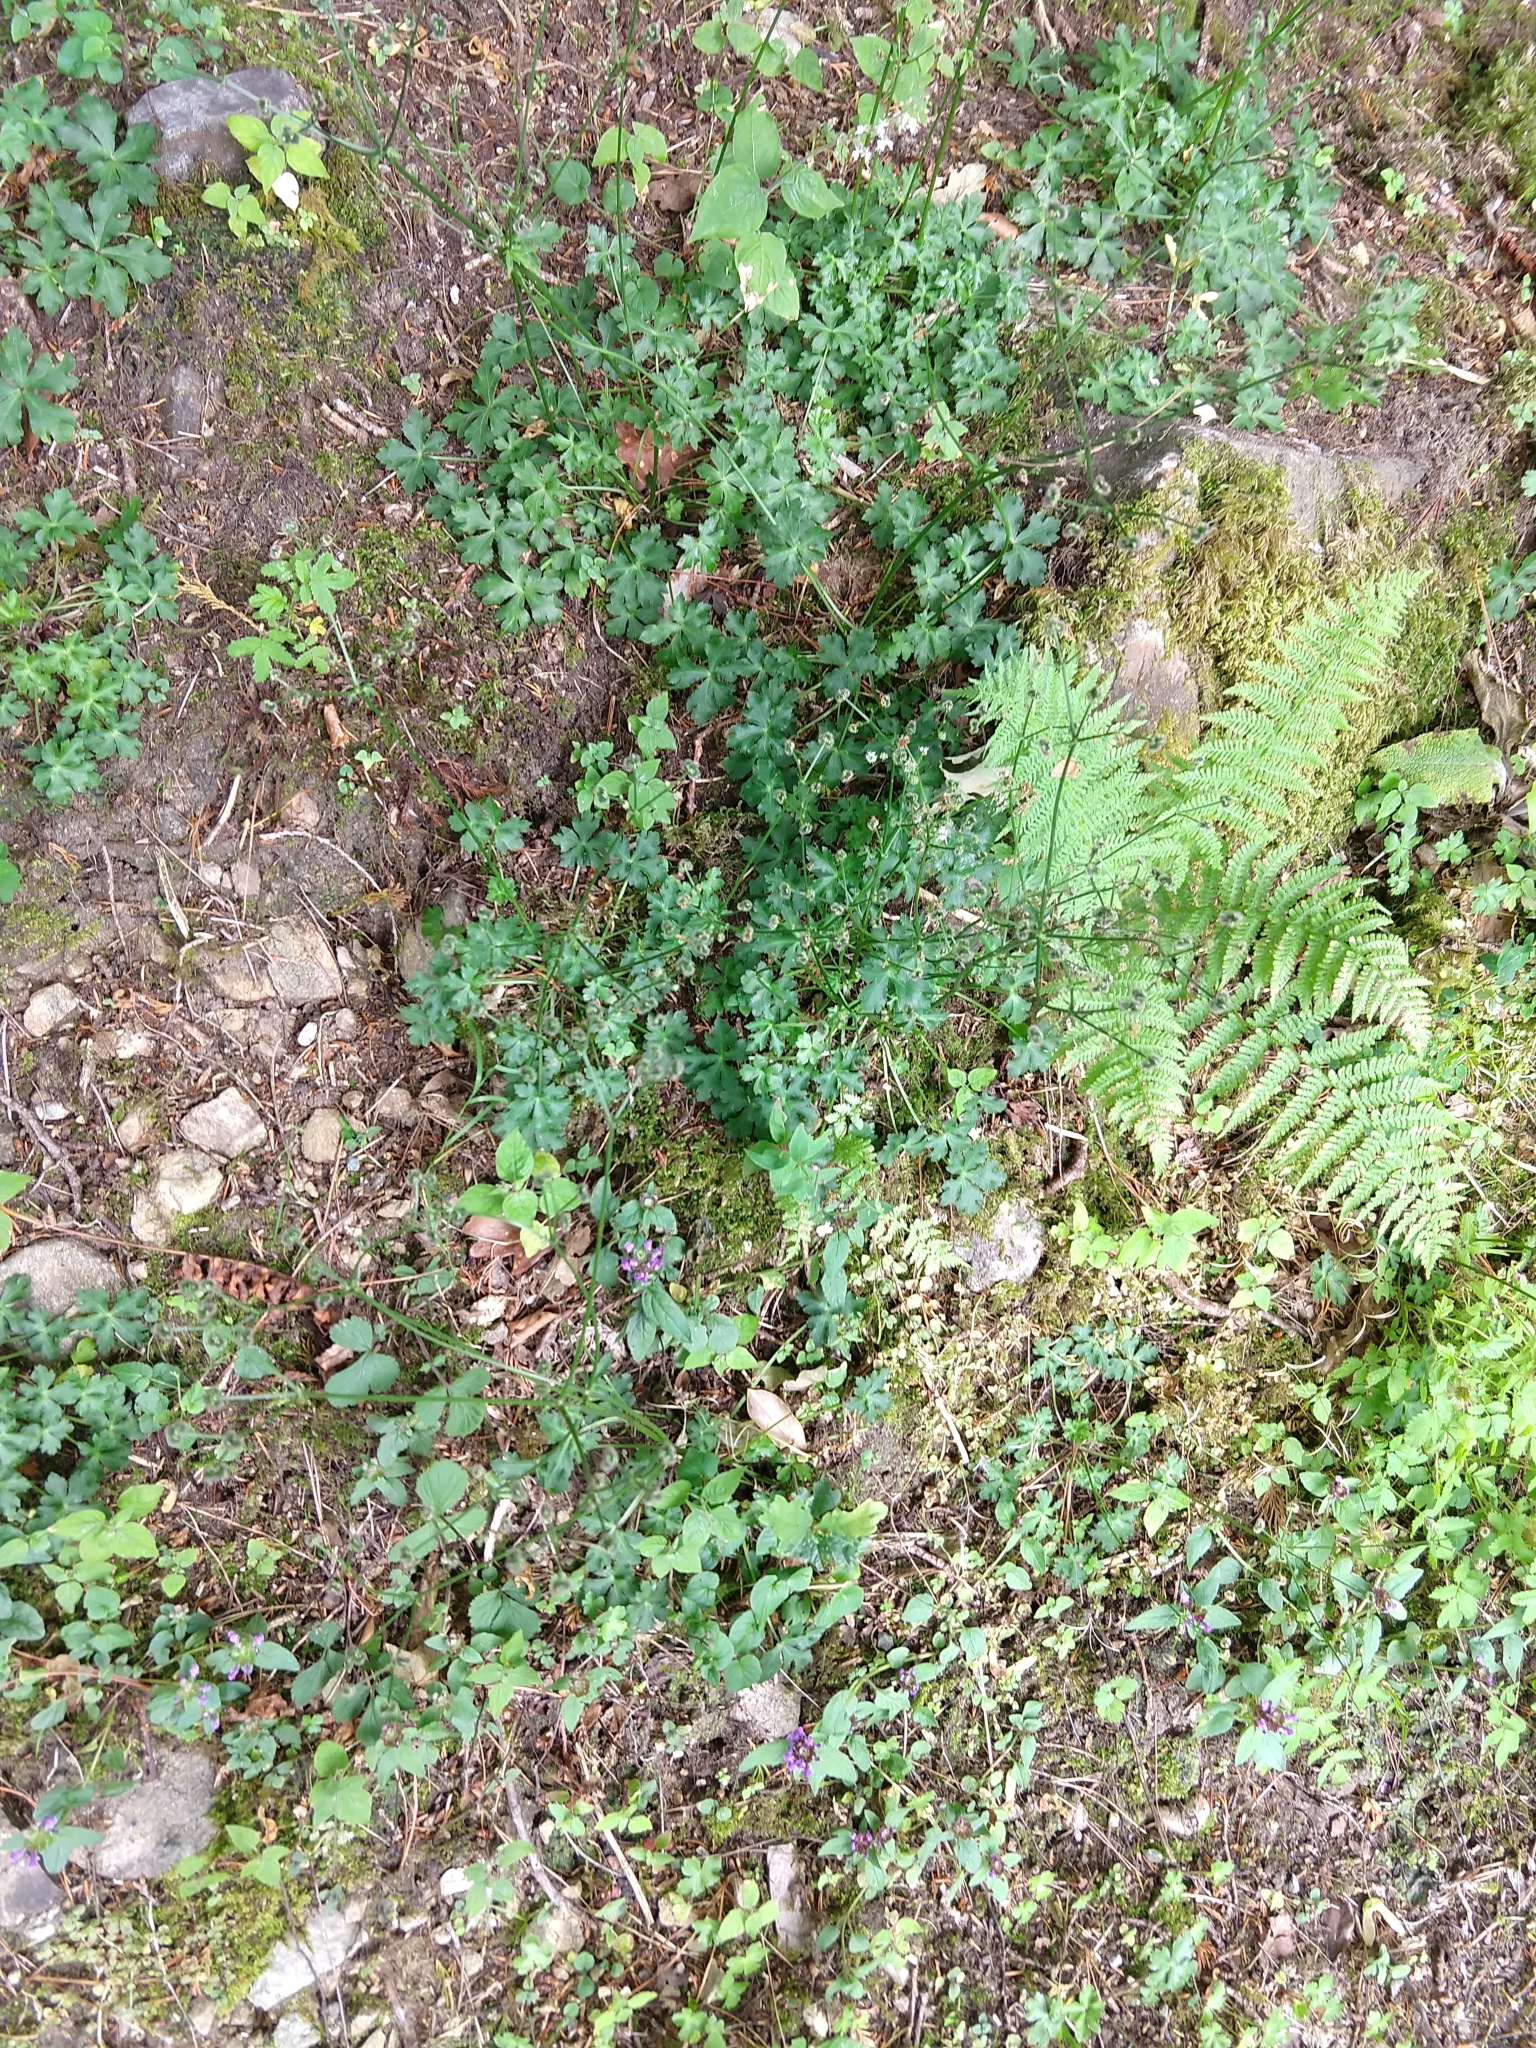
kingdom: Plantae
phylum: Tracheophyta
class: Magnoliopsida
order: Apiales
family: Apiaceae
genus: Sanicula
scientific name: Sanicula europaea
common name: Sanicle
